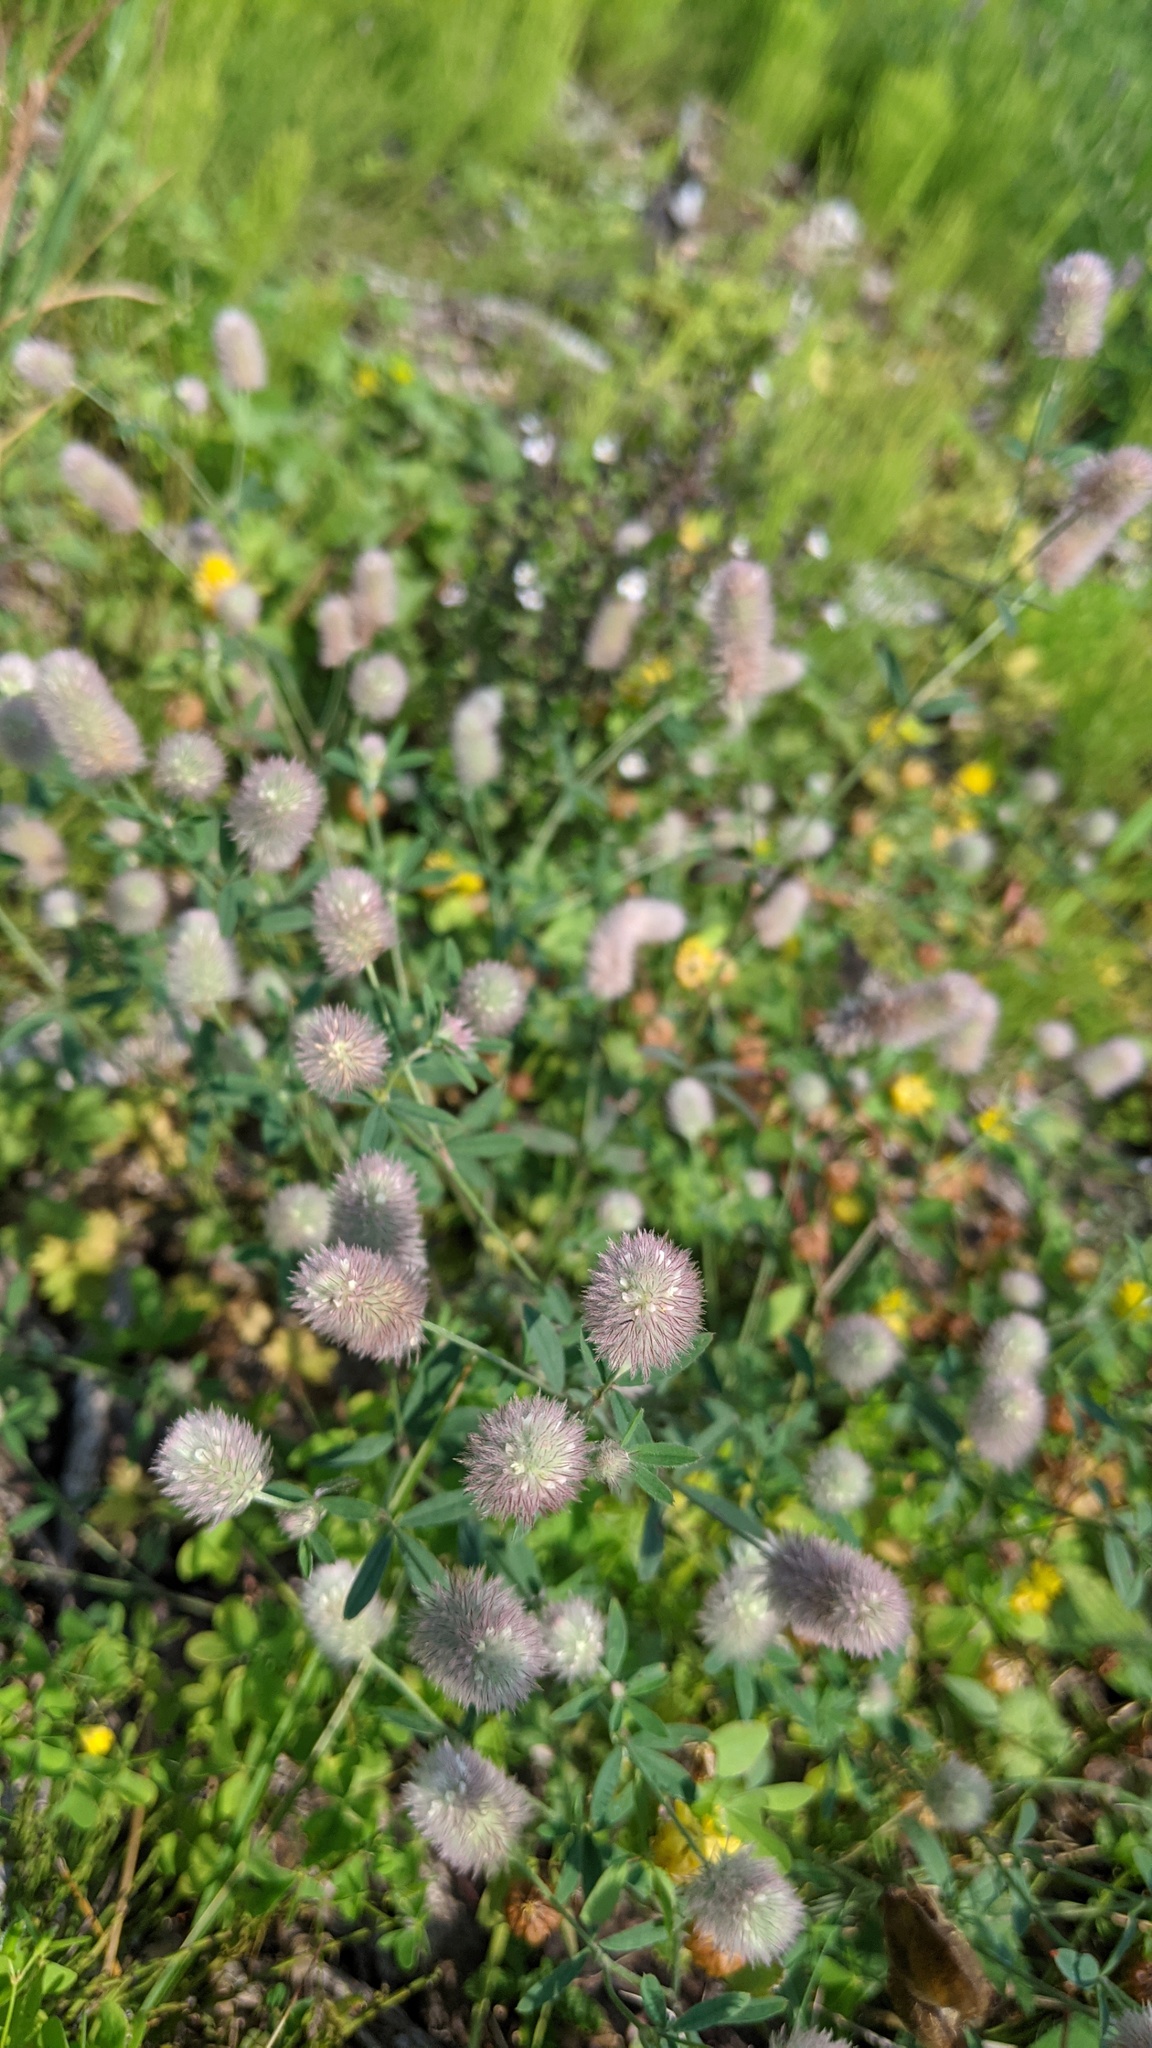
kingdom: Plantae
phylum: Tracheophyta
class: Magnoliopsida
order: Fabales
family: Fabaceae
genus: Trifolium
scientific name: Trifolium arvense
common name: Hare's-foot clover
